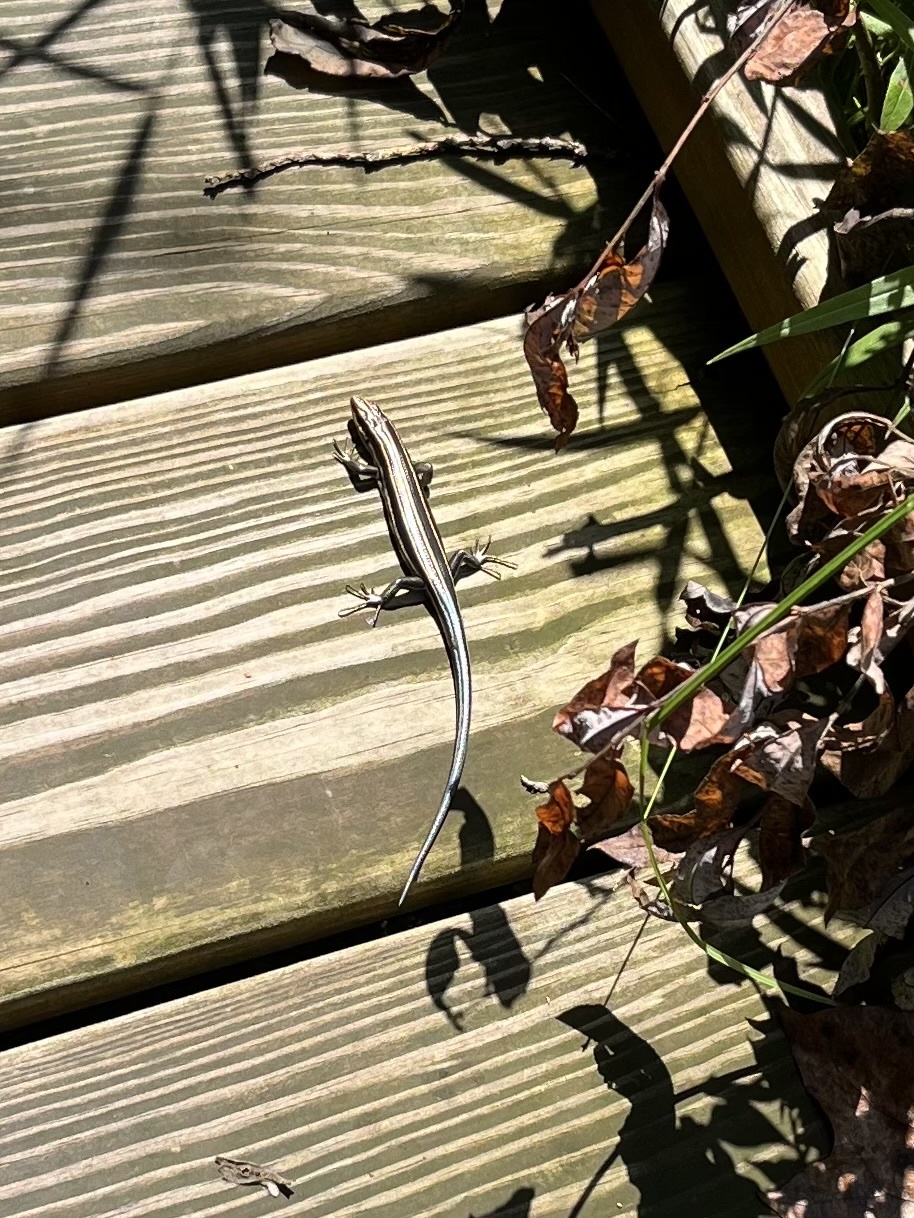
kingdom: Animalia
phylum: Chordata
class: Squamata
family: Scincidae
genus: Plestiodon
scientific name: Plestiodon fasciatus
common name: Five-lined skink
